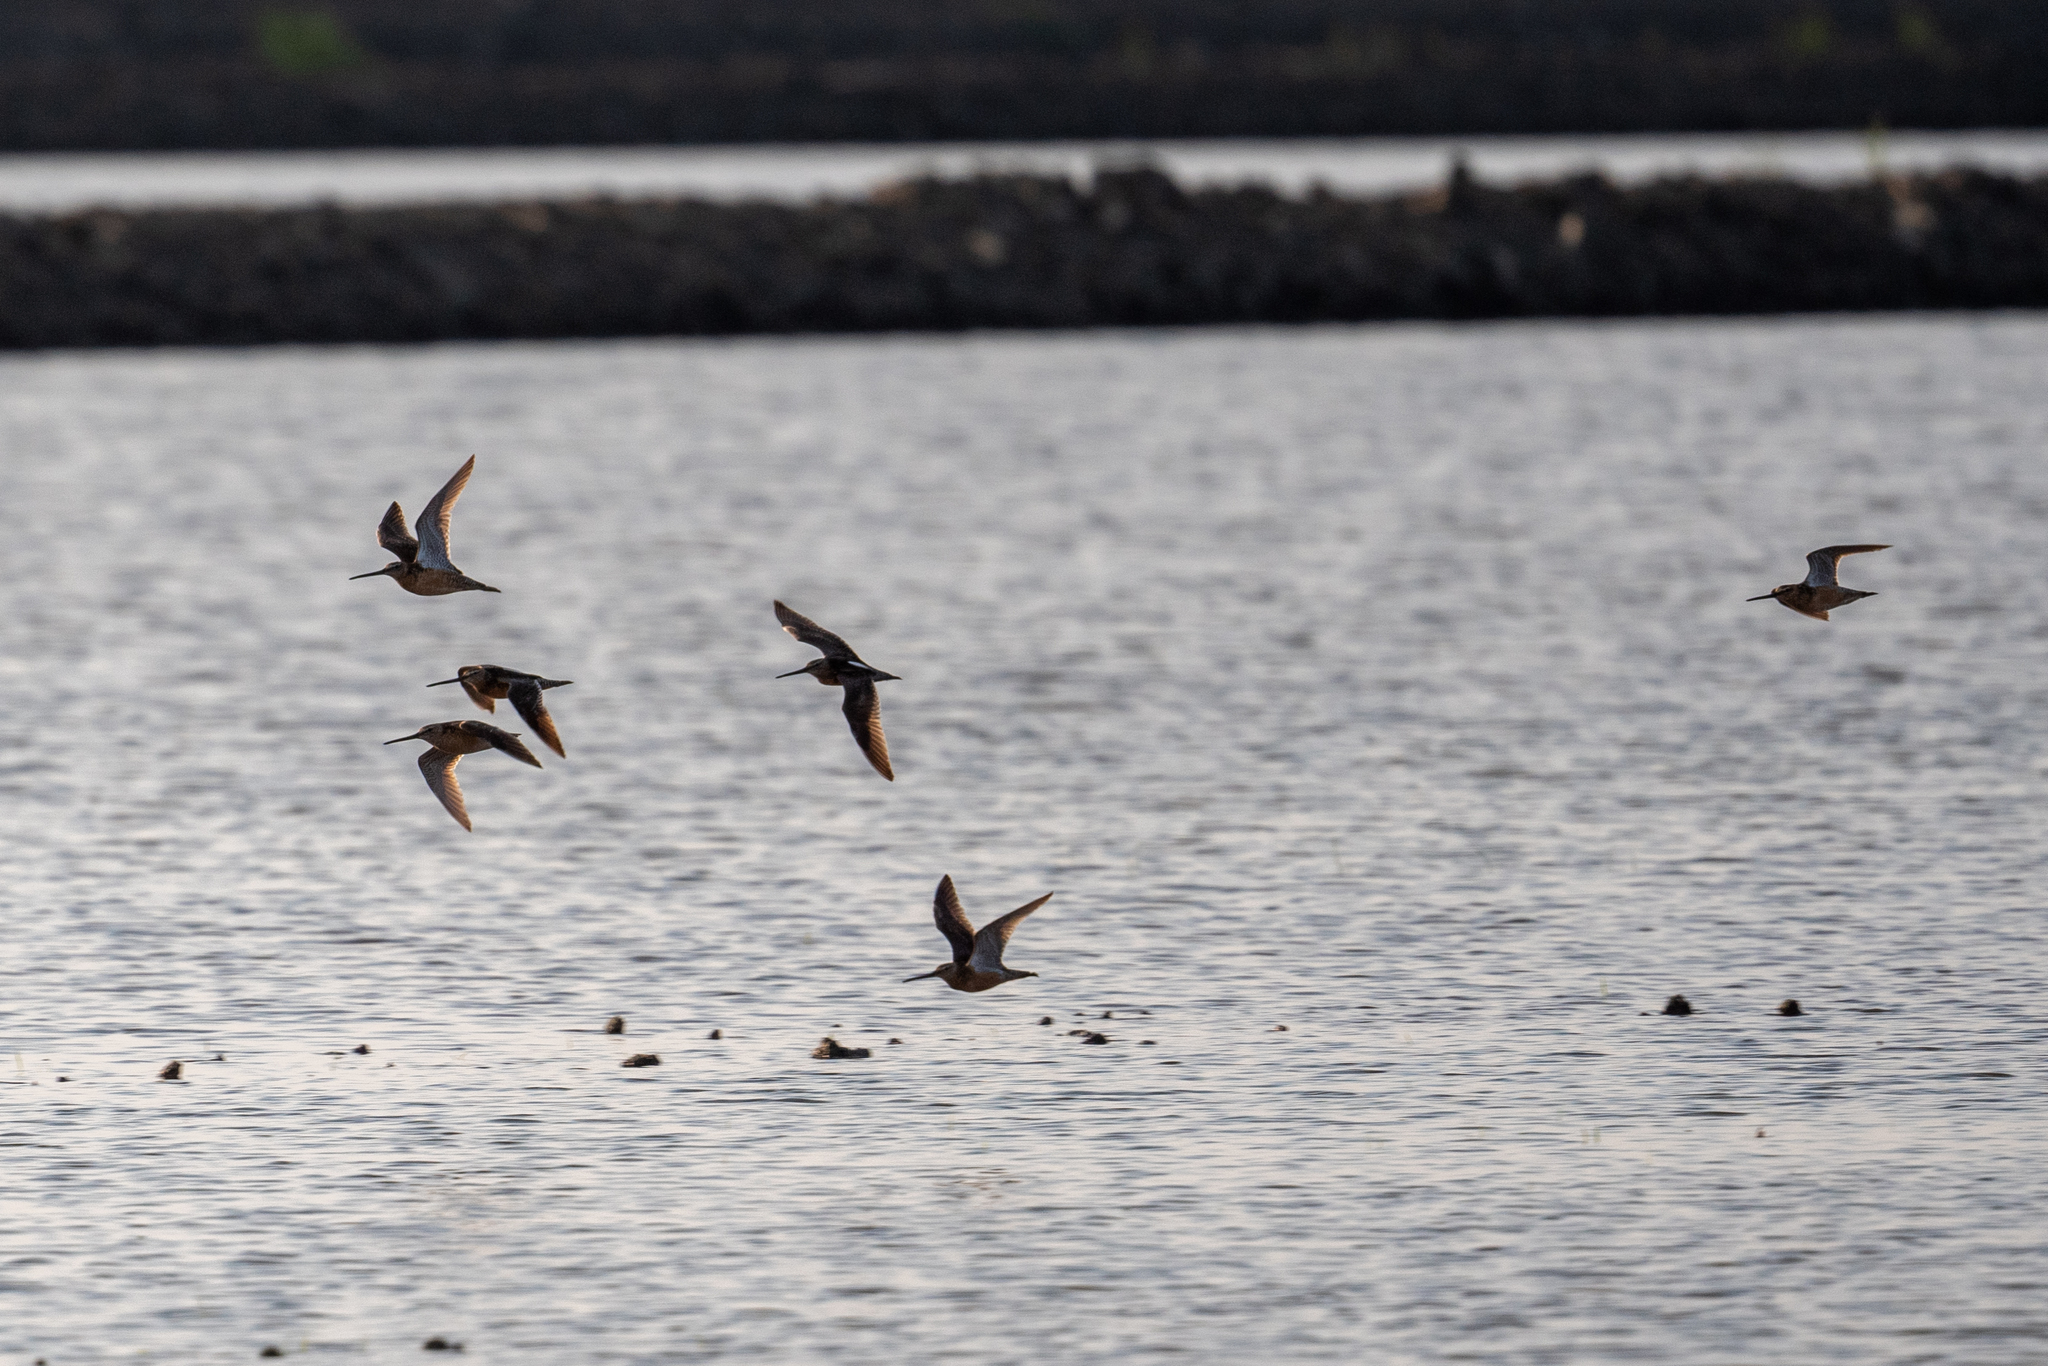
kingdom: Animalia
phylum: Chordata
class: Aves
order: Charadriiformes
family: Scolopacidae
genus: Limnodromus
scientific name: Limnodromus scolopaceus
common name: Long-billed dowitcher
